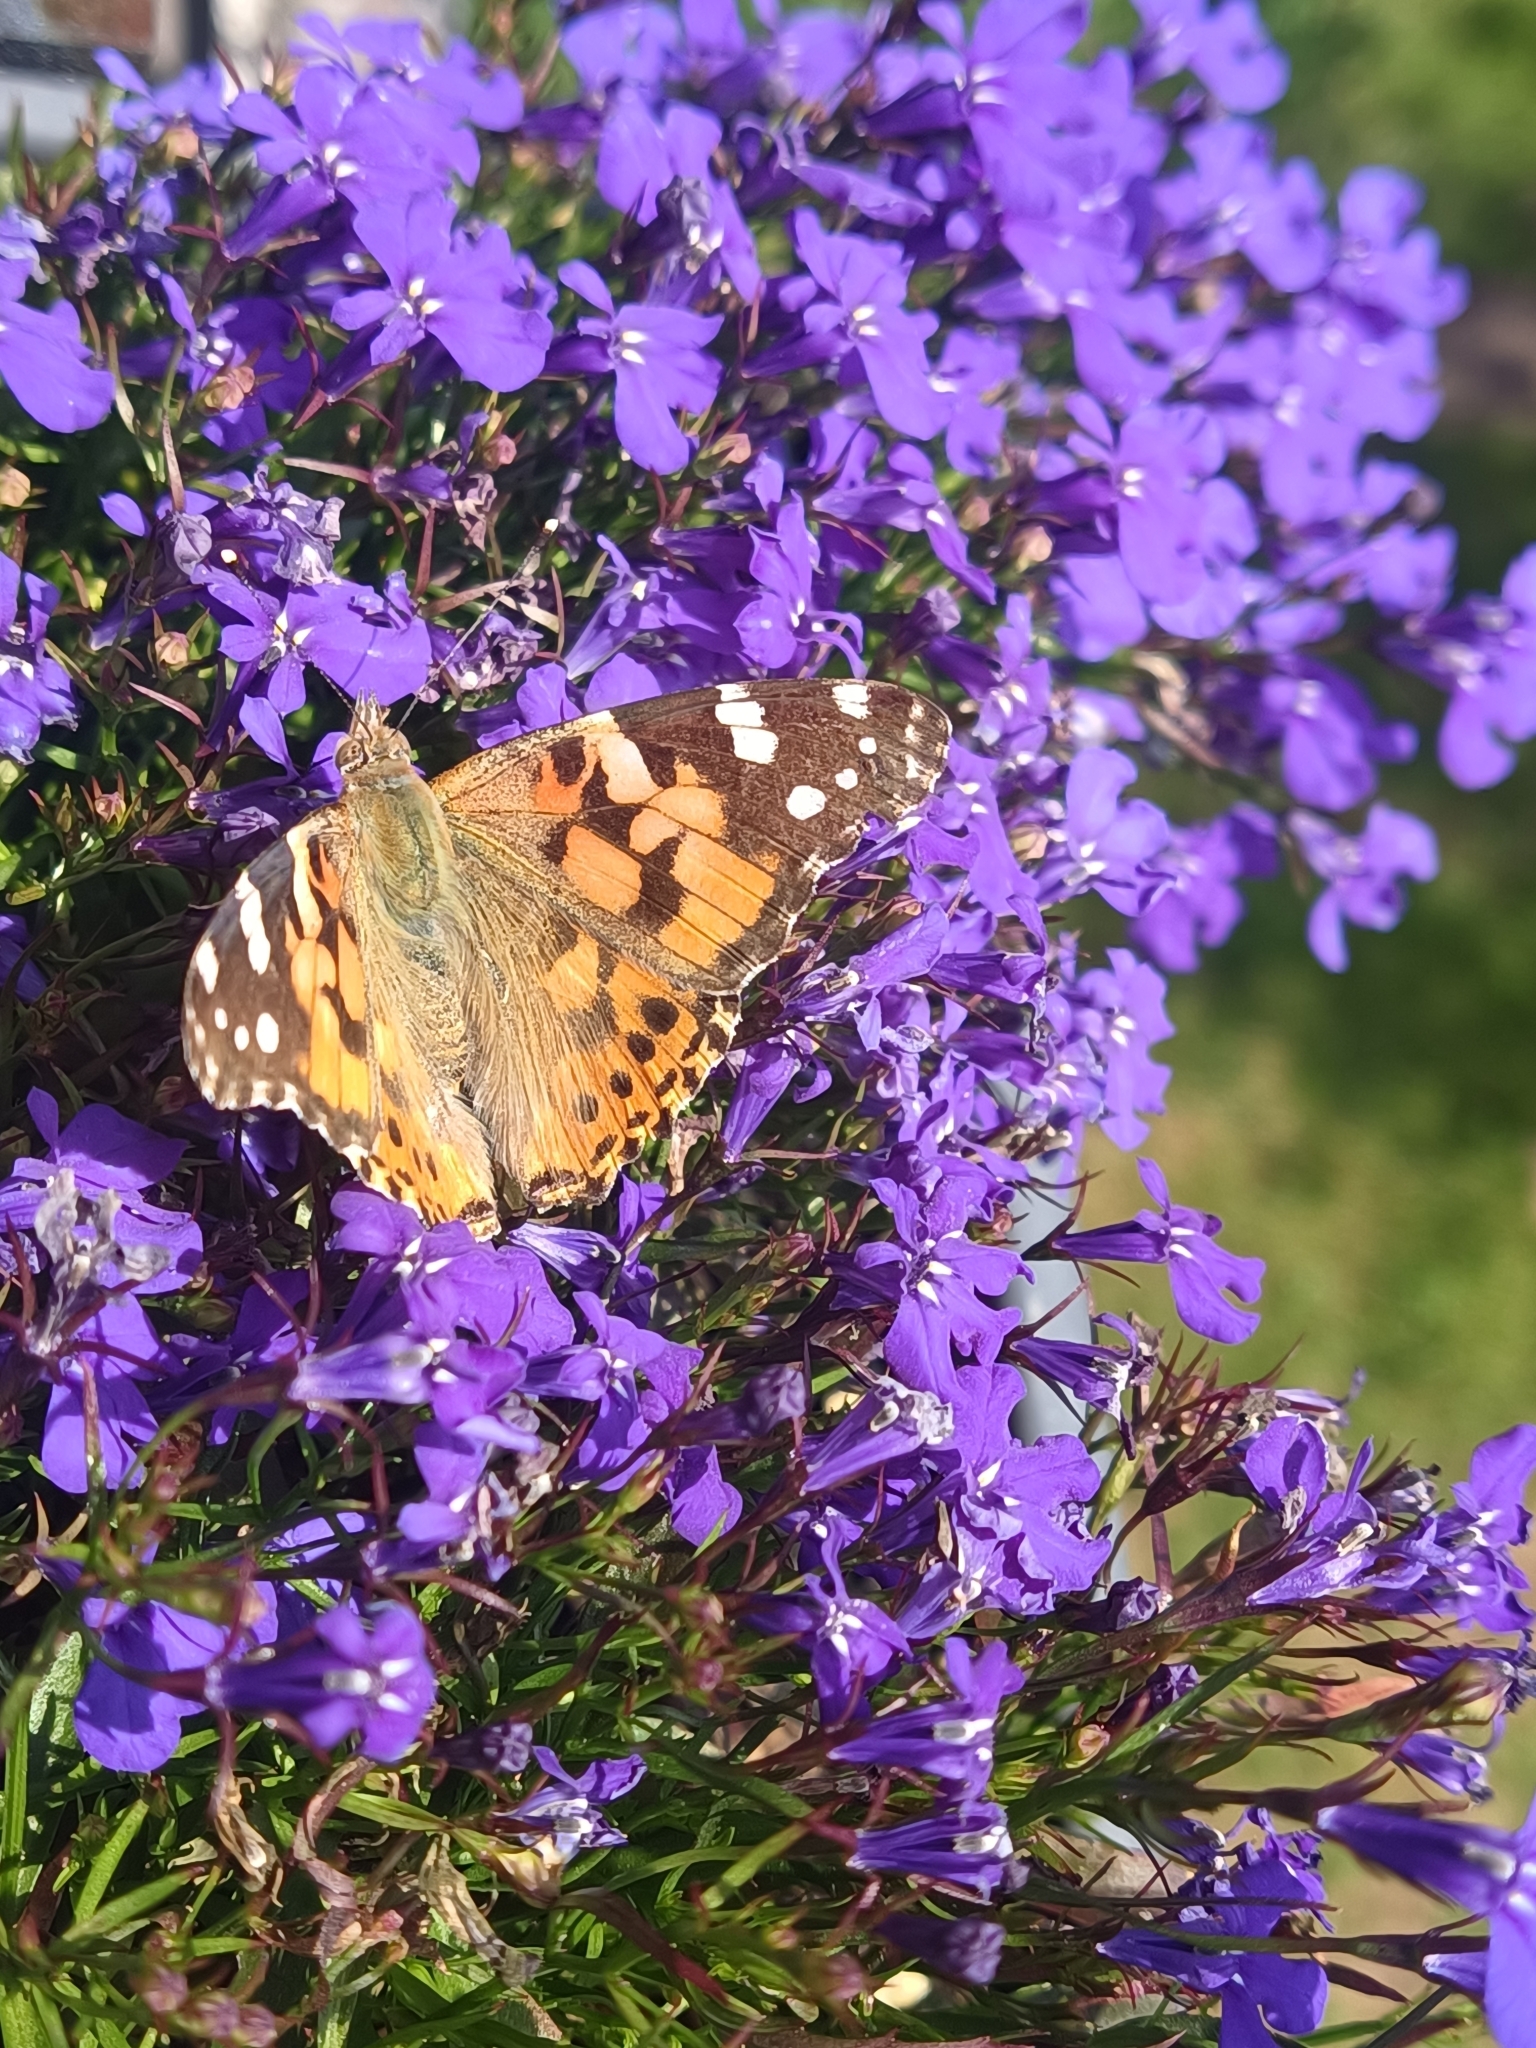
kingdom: Animalia
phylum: Arthropoda
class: Insecta
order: Lepidoptera
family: Nymphalidae
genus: Vanessa
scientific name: Vanessa cardui
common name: Painted lady
